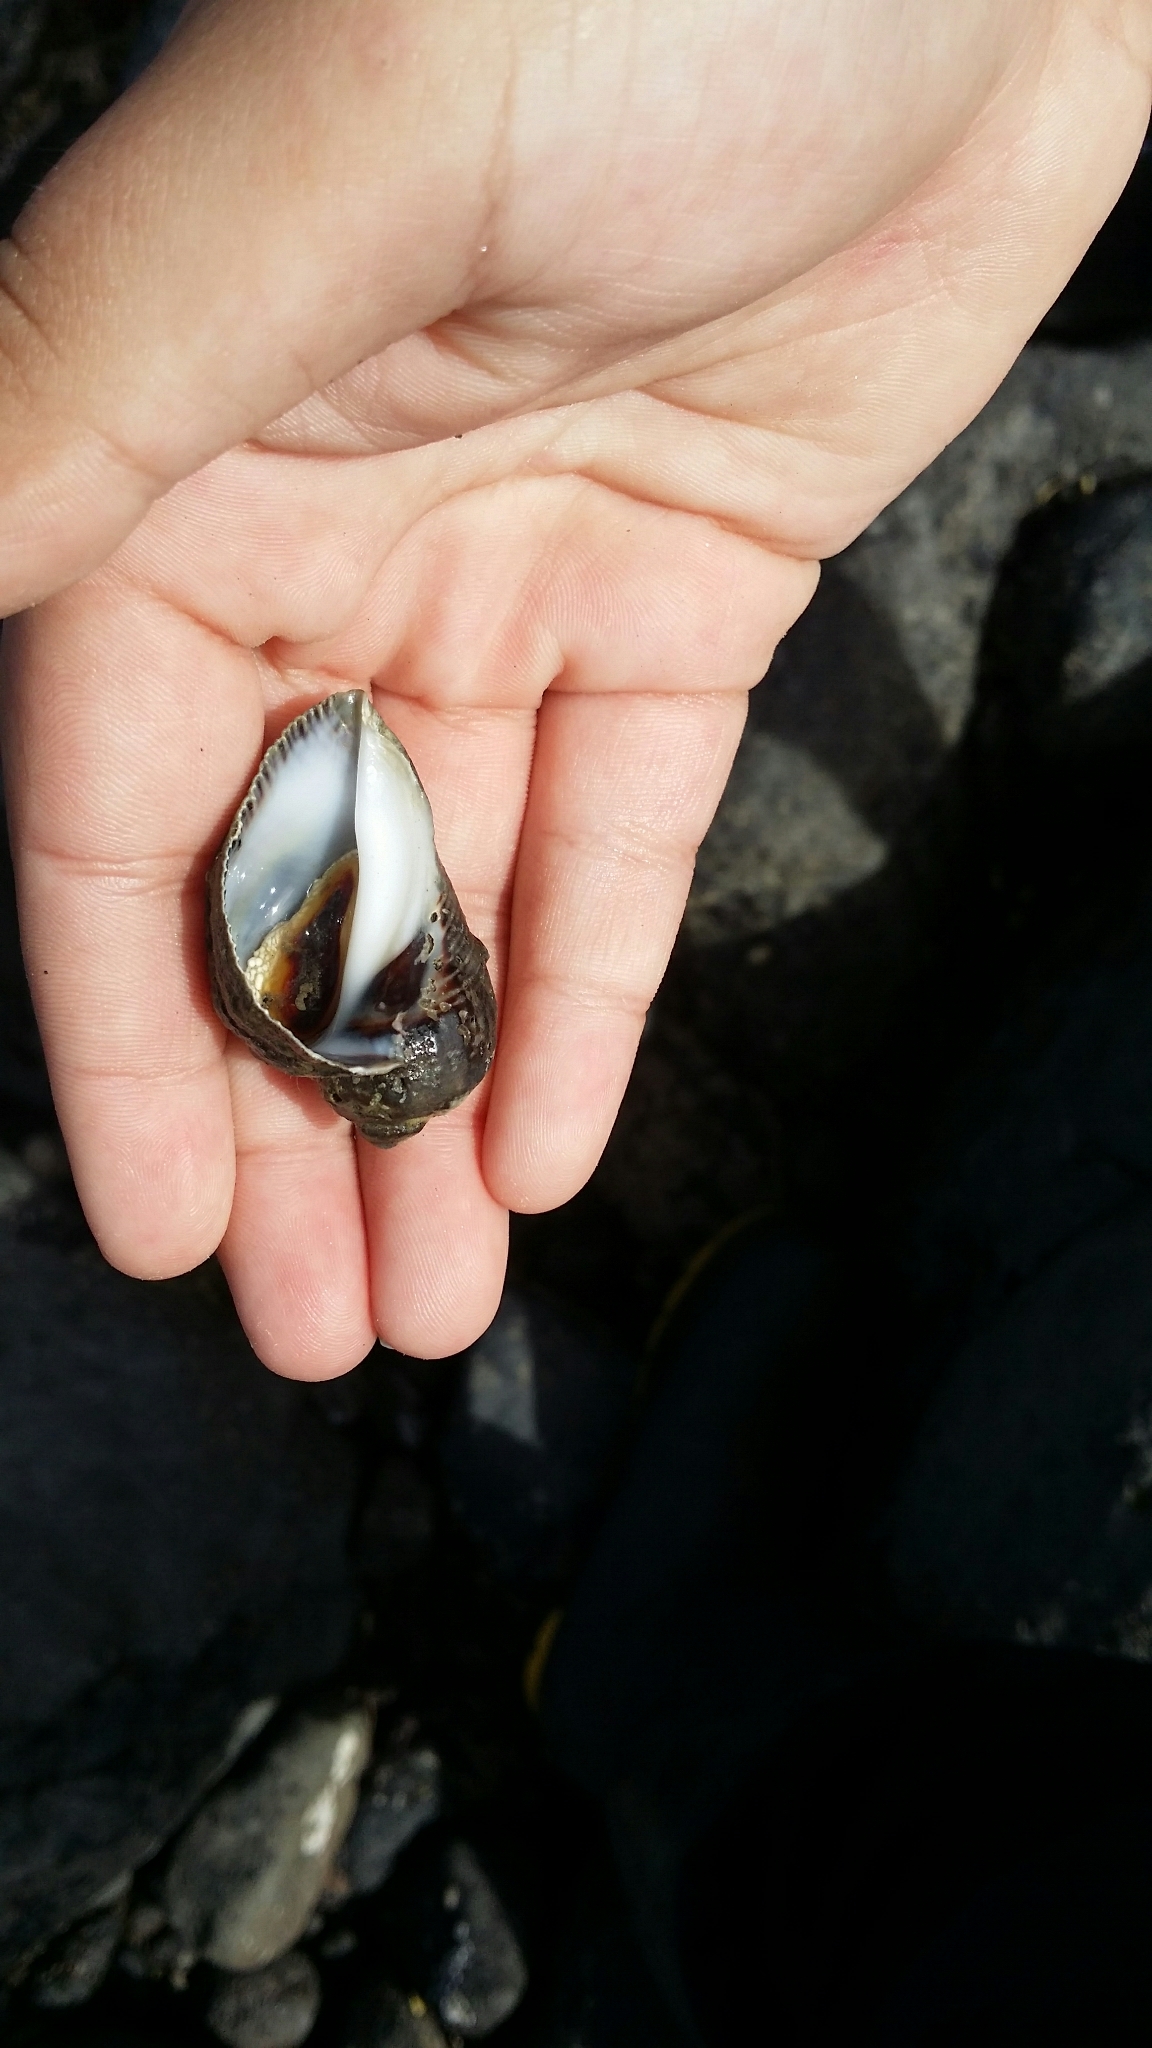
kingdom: Animalia
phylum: Mollusca
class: Gastropoda
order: Neogastropoda
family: Muricidae
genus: Haustrum
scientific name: Haustrum haustorium
